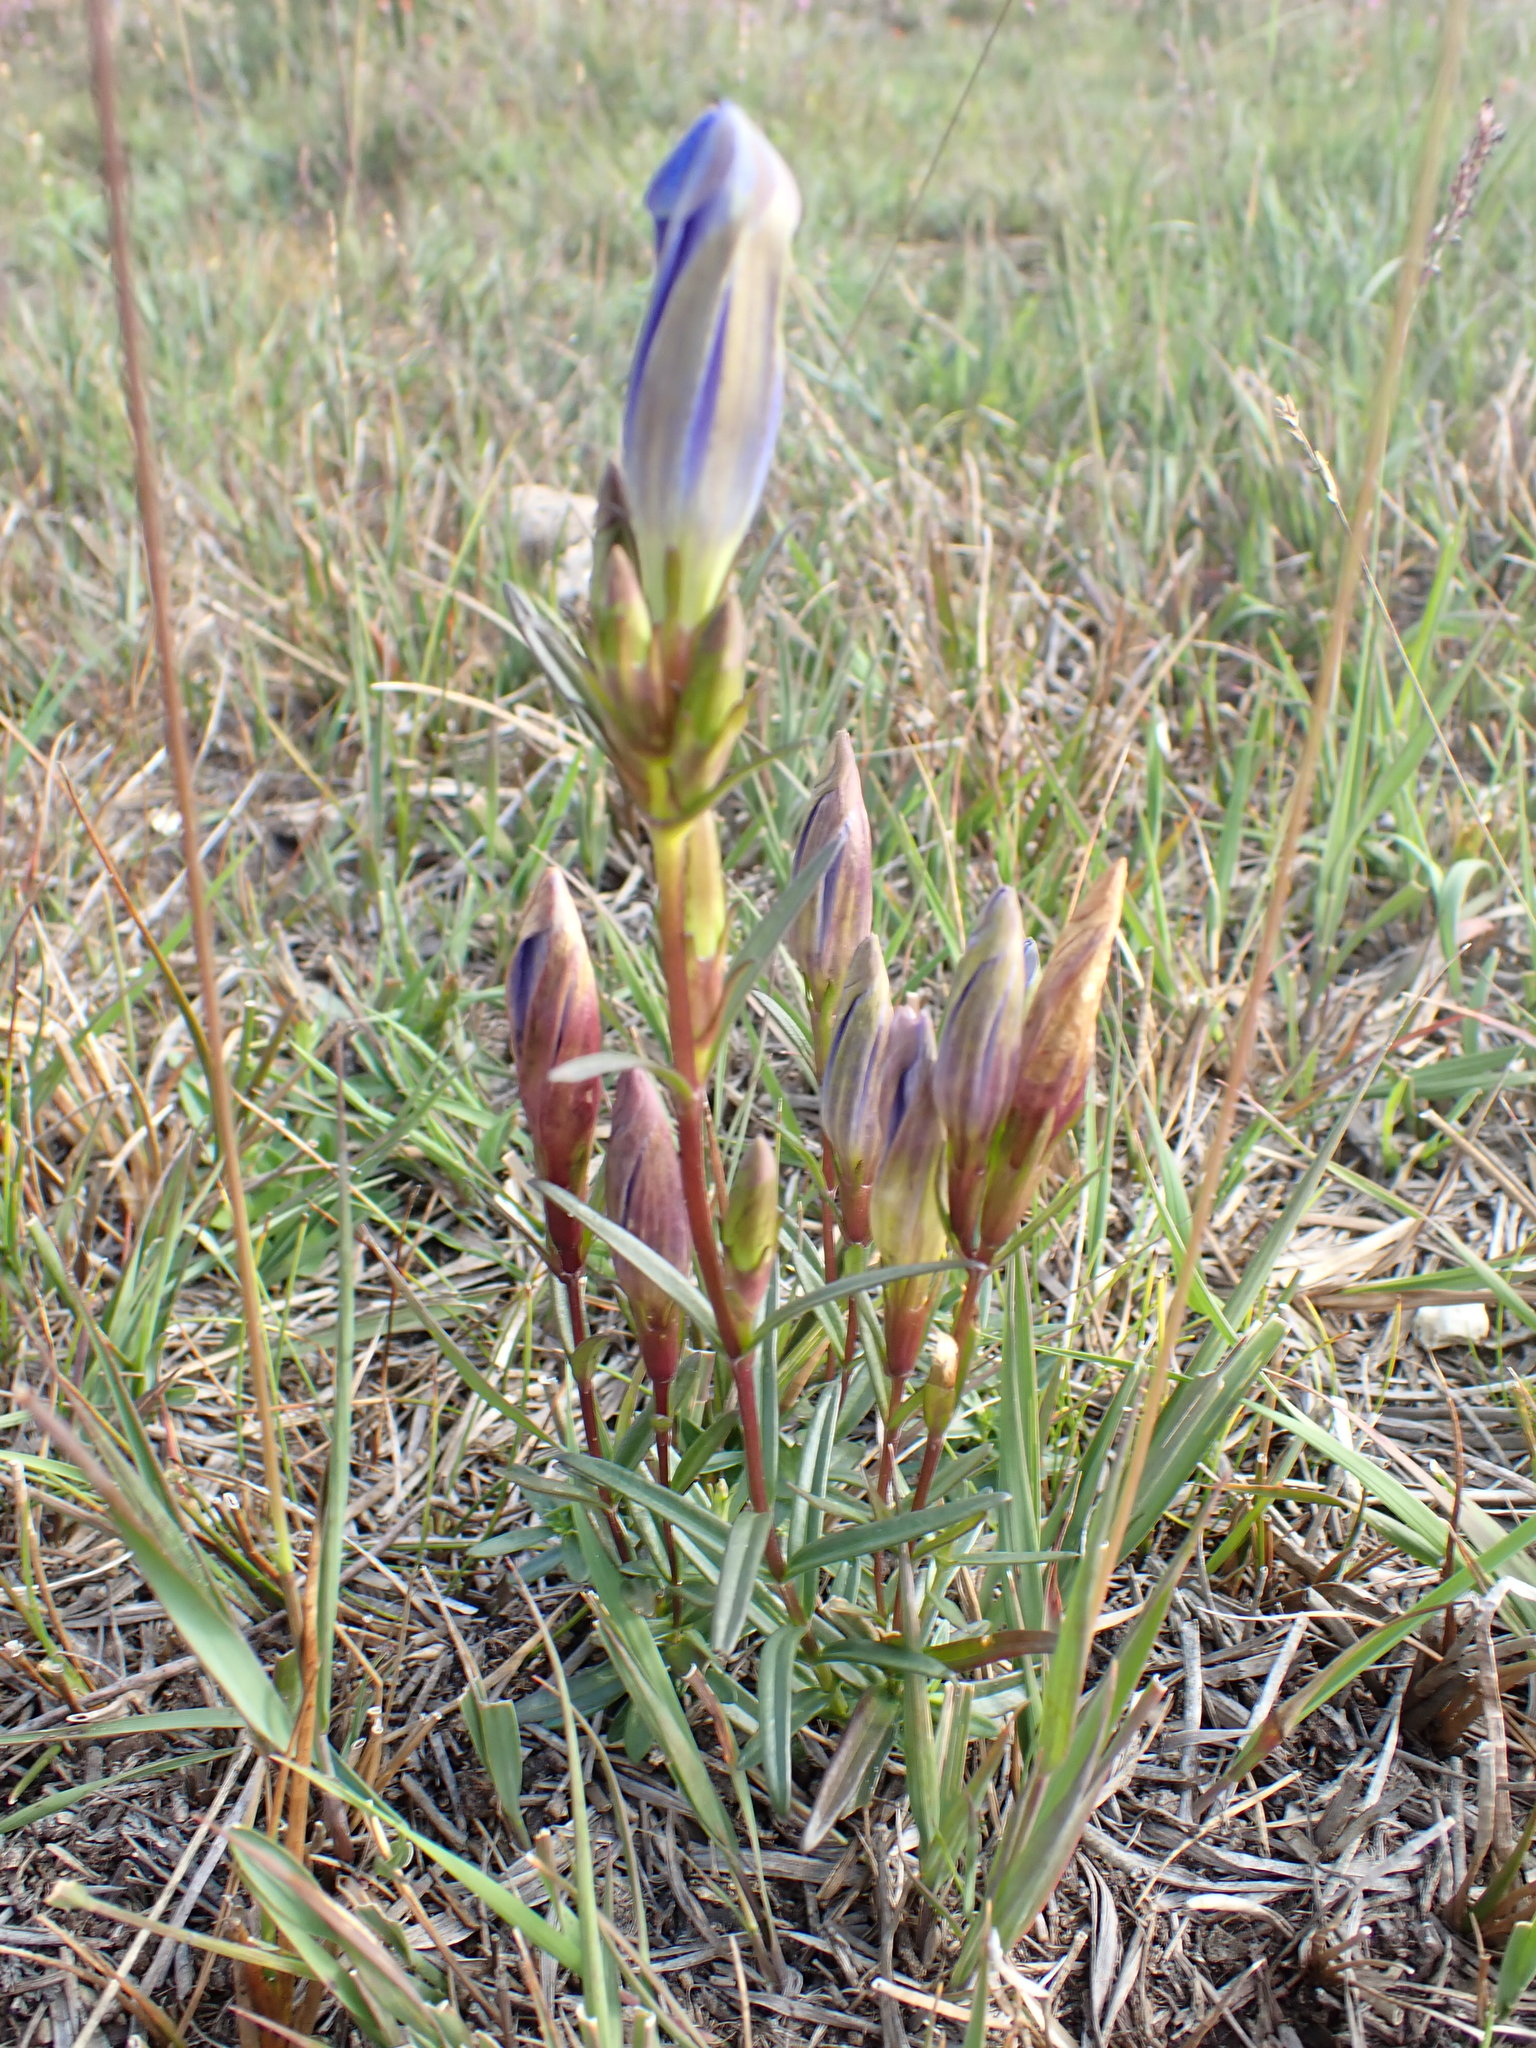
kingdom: Plantae
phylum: Tracheophyta
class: Magnoliopsida
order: Gentianales
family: Gentianaceae
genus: Gentiana
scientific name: Gentiana pneumonanthe
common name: Marsh gentian
